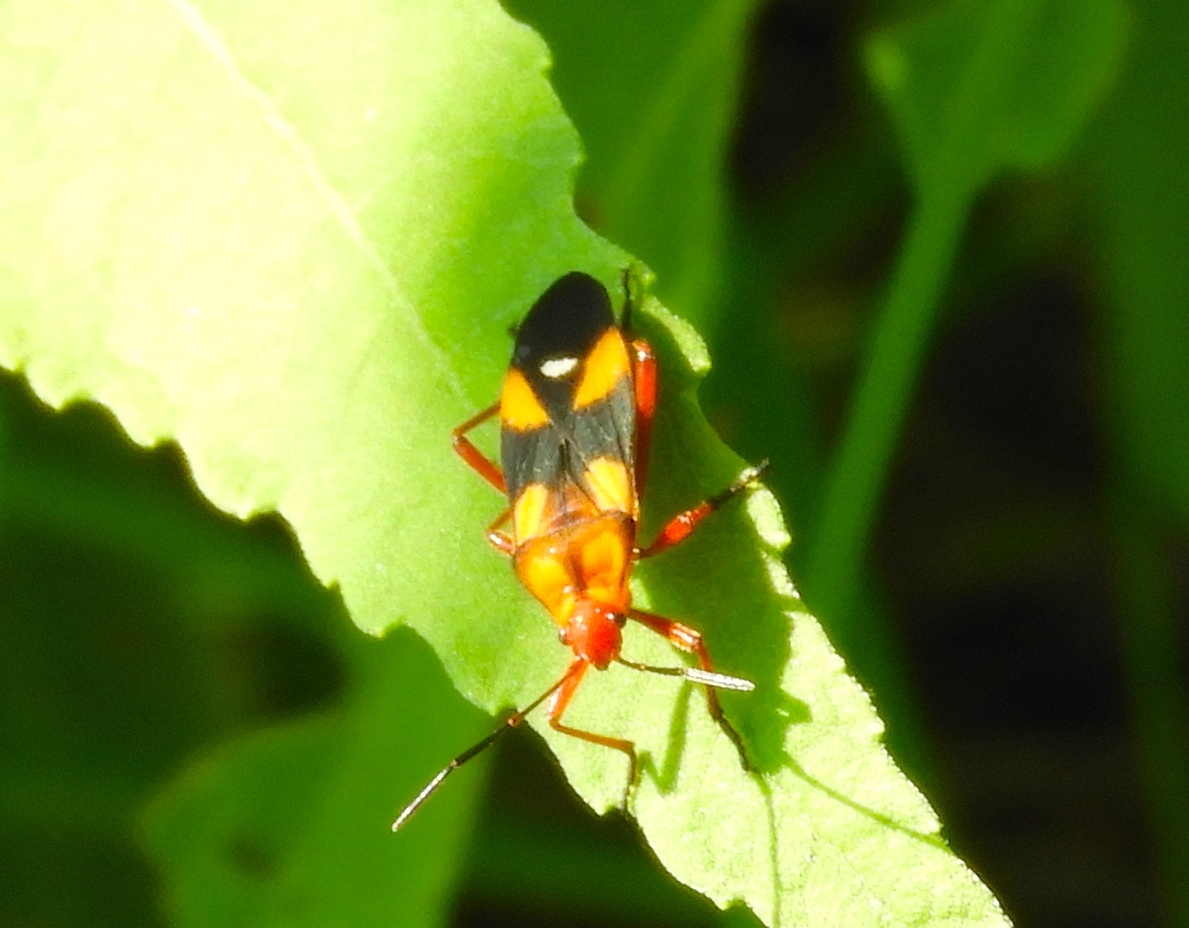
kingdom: Animalia
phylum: Arthropoda
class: Insecta
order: Hemiptera
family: Lygaeidae
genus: Oncopeltus
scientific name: Oncopeltus guttaloides
